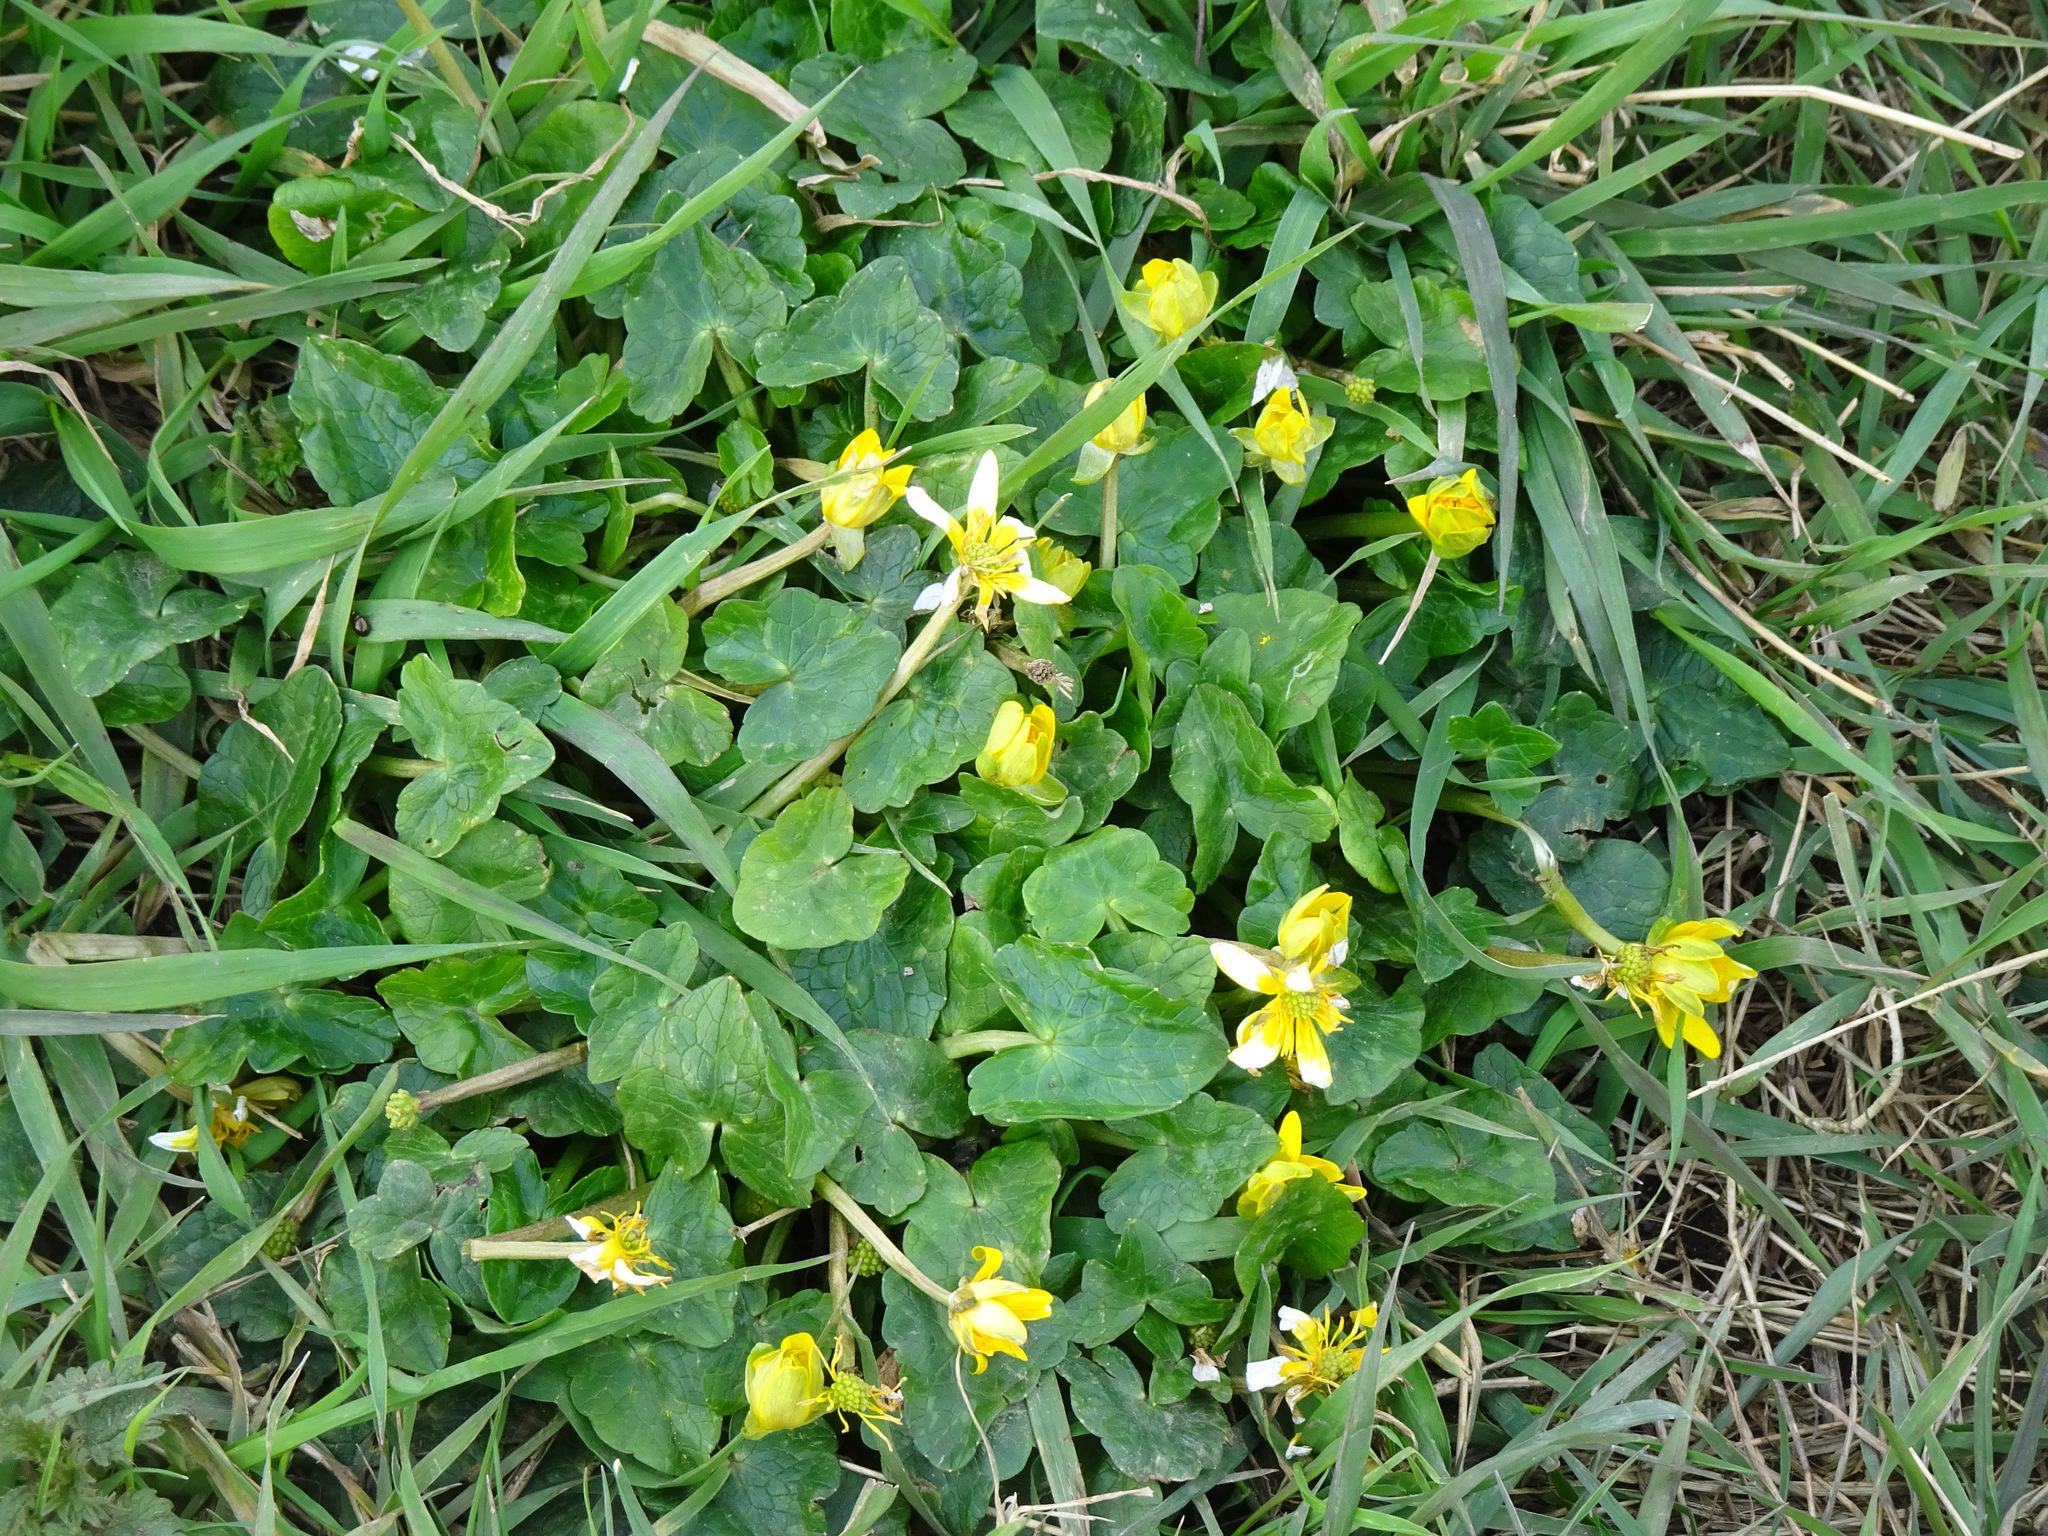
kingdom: Plantae
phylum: Tracheophyta
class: Magnoliopsida
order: Ranunculales
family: Ranunculaceae
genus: Ficaria
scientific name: Ficaria verna
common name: Lesser celandine
